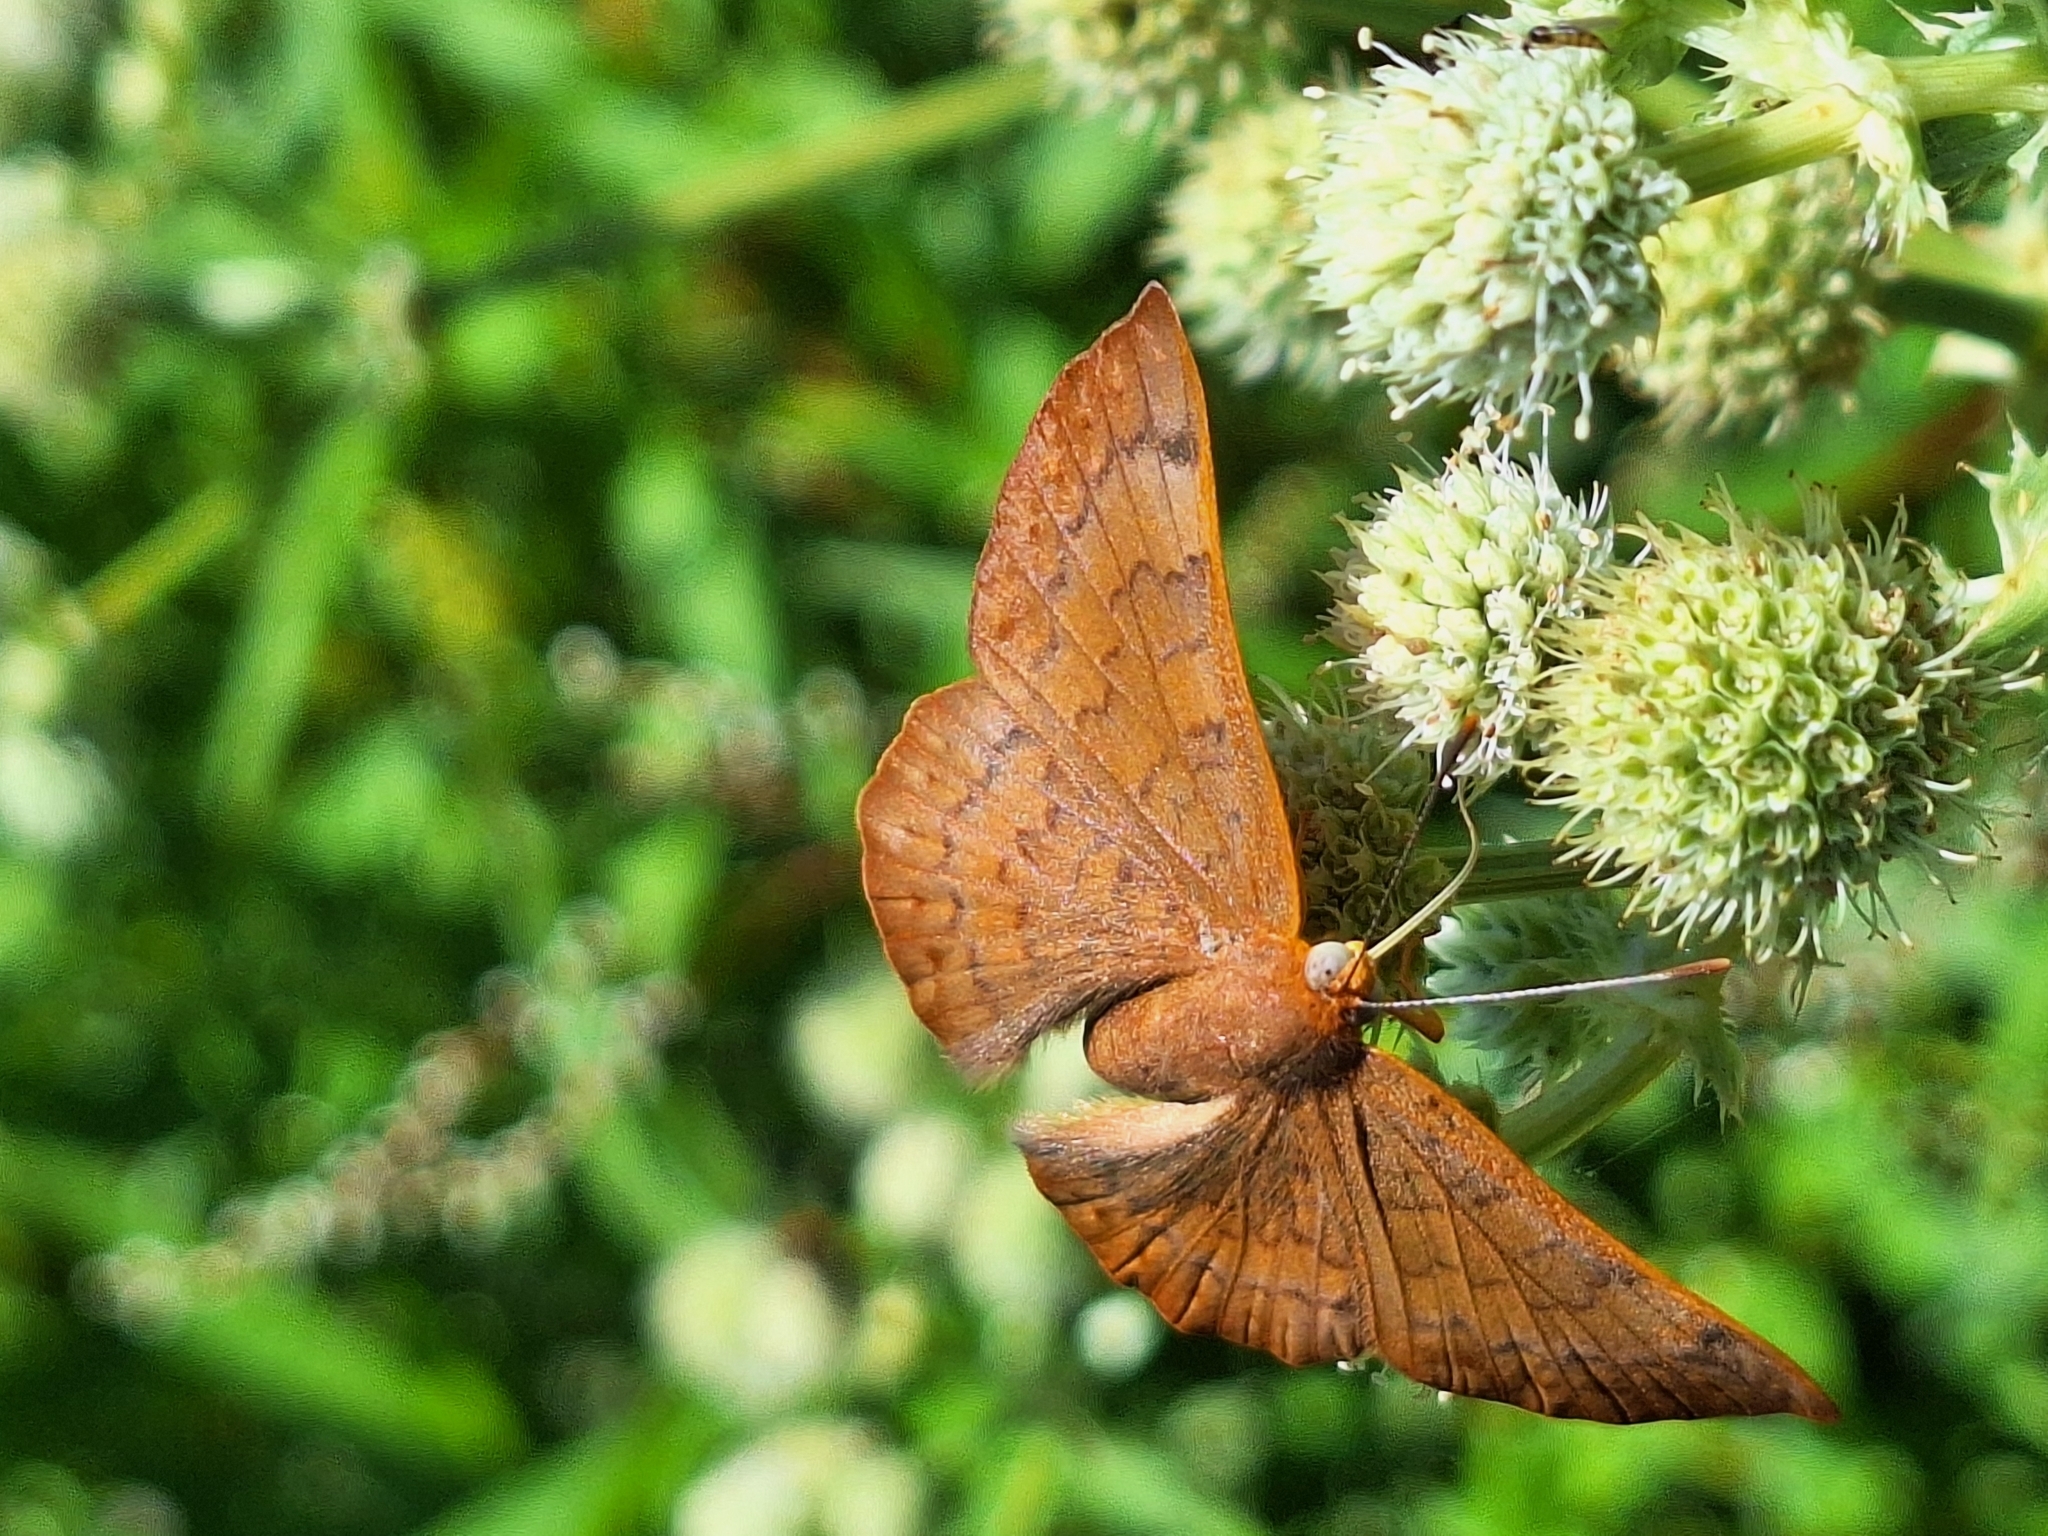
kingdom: Animalia
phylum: Arthropoda
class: Insecta
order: Lepidoptera
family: Lycaenidae
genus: Emesis
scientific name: Emesis russula
